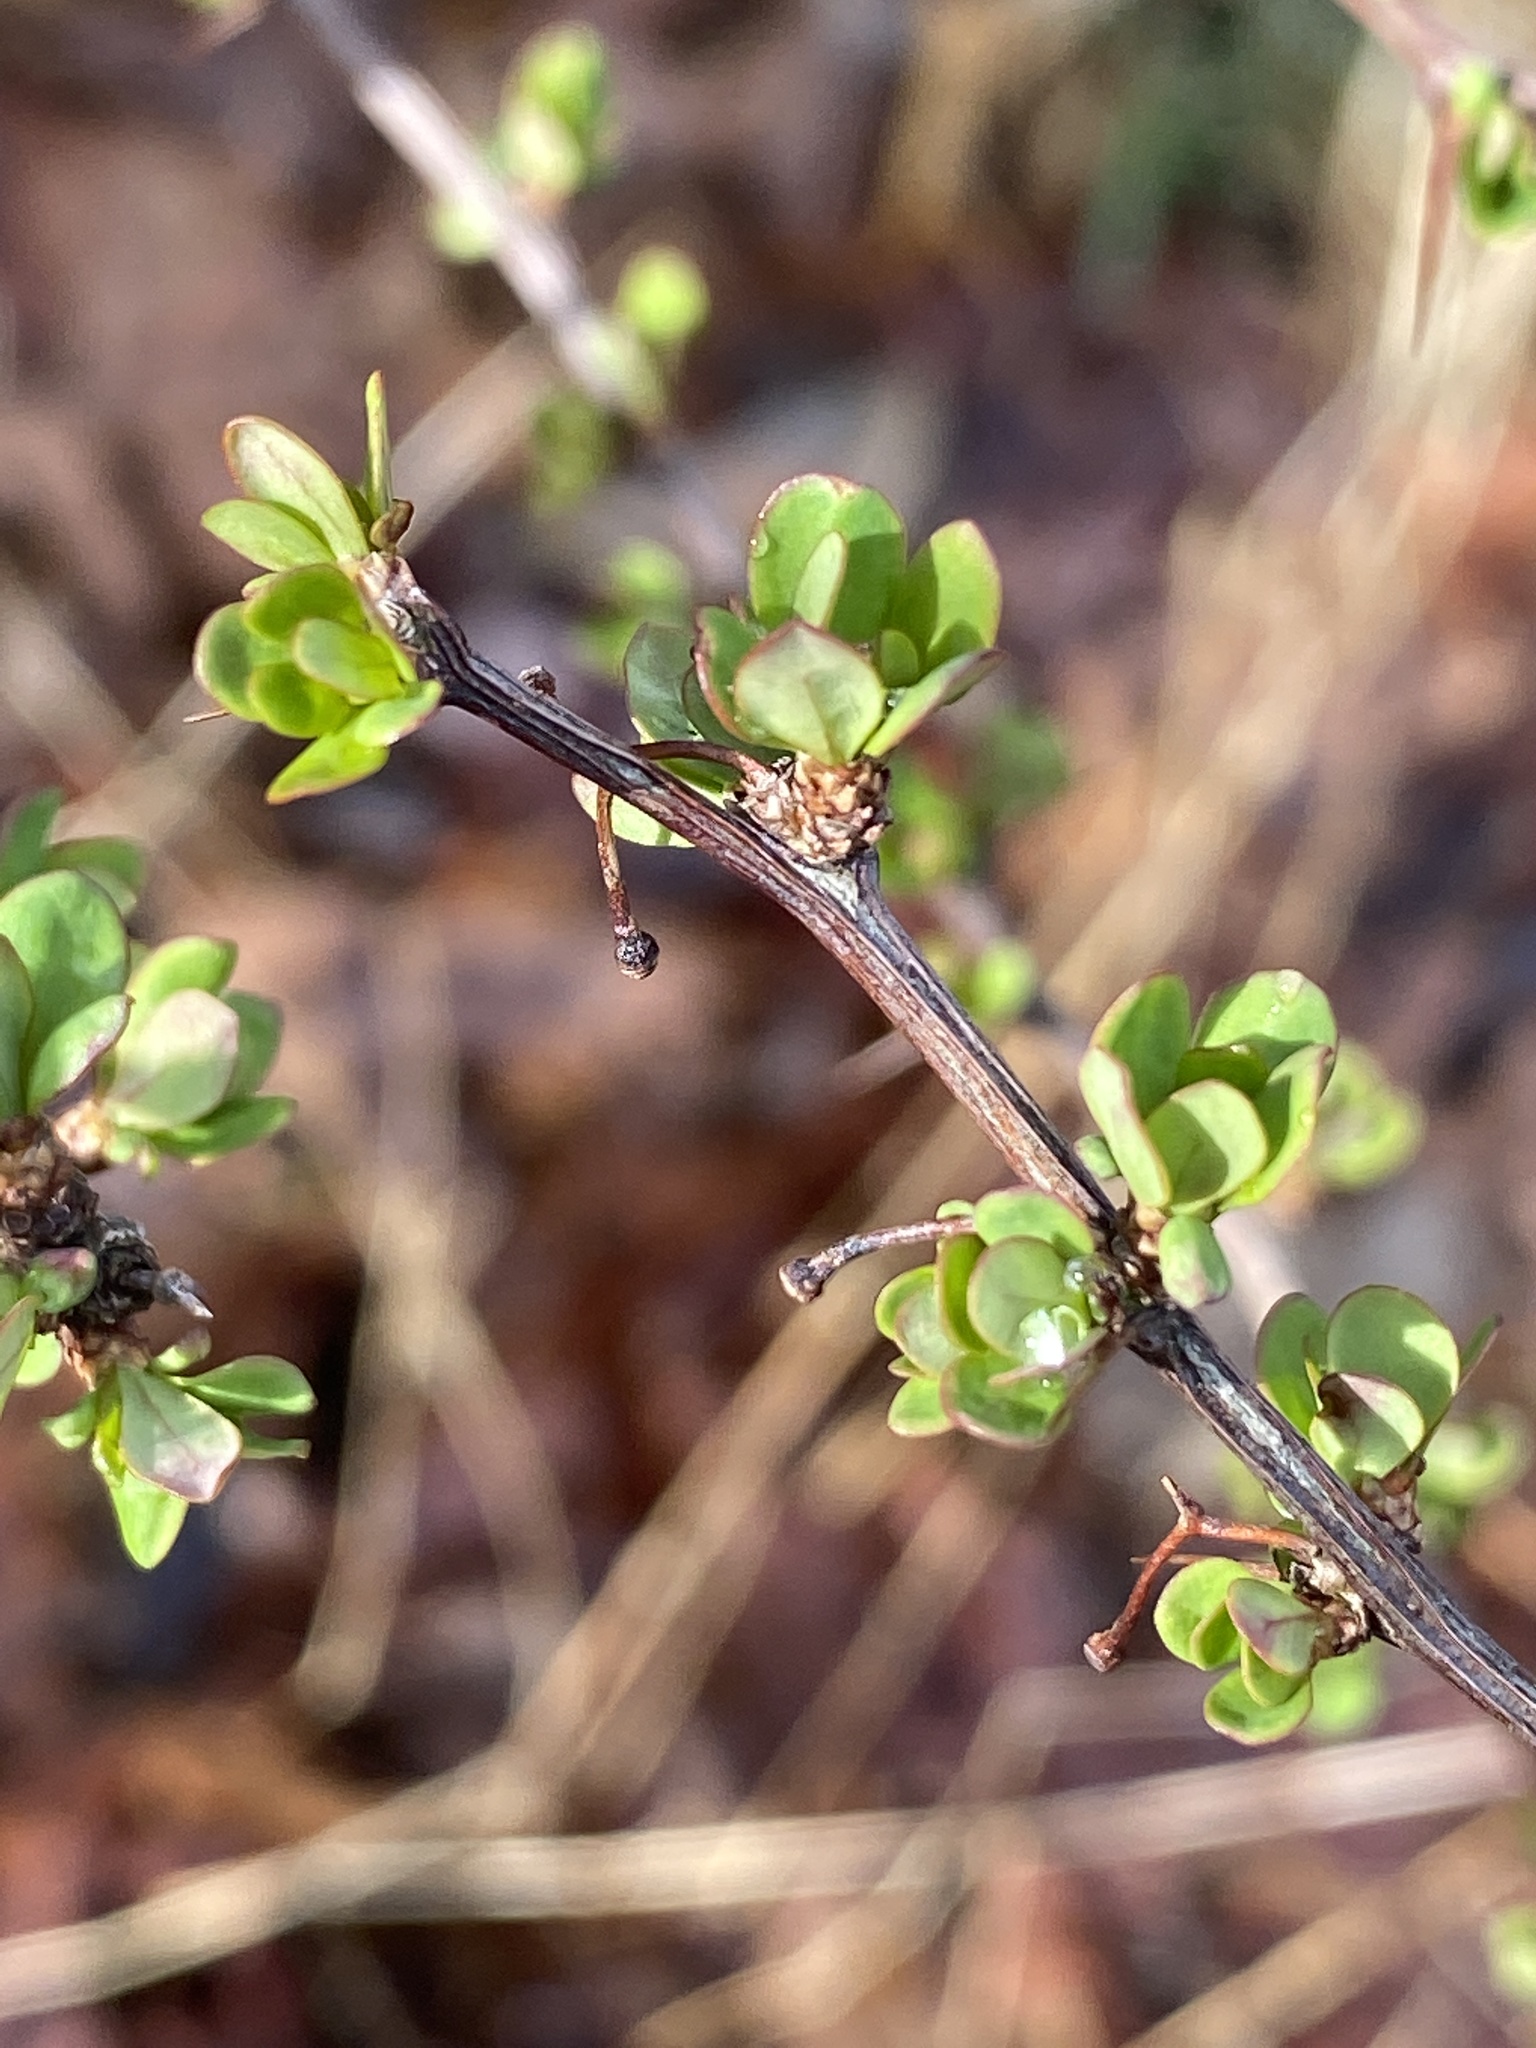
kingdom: Plantae
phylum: Tracheophyta
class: Magnoliopsida
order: Ranunculales
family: Berberidaceae
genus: Berberis
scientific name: Berberis thunbergii
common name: Japanese barberry
